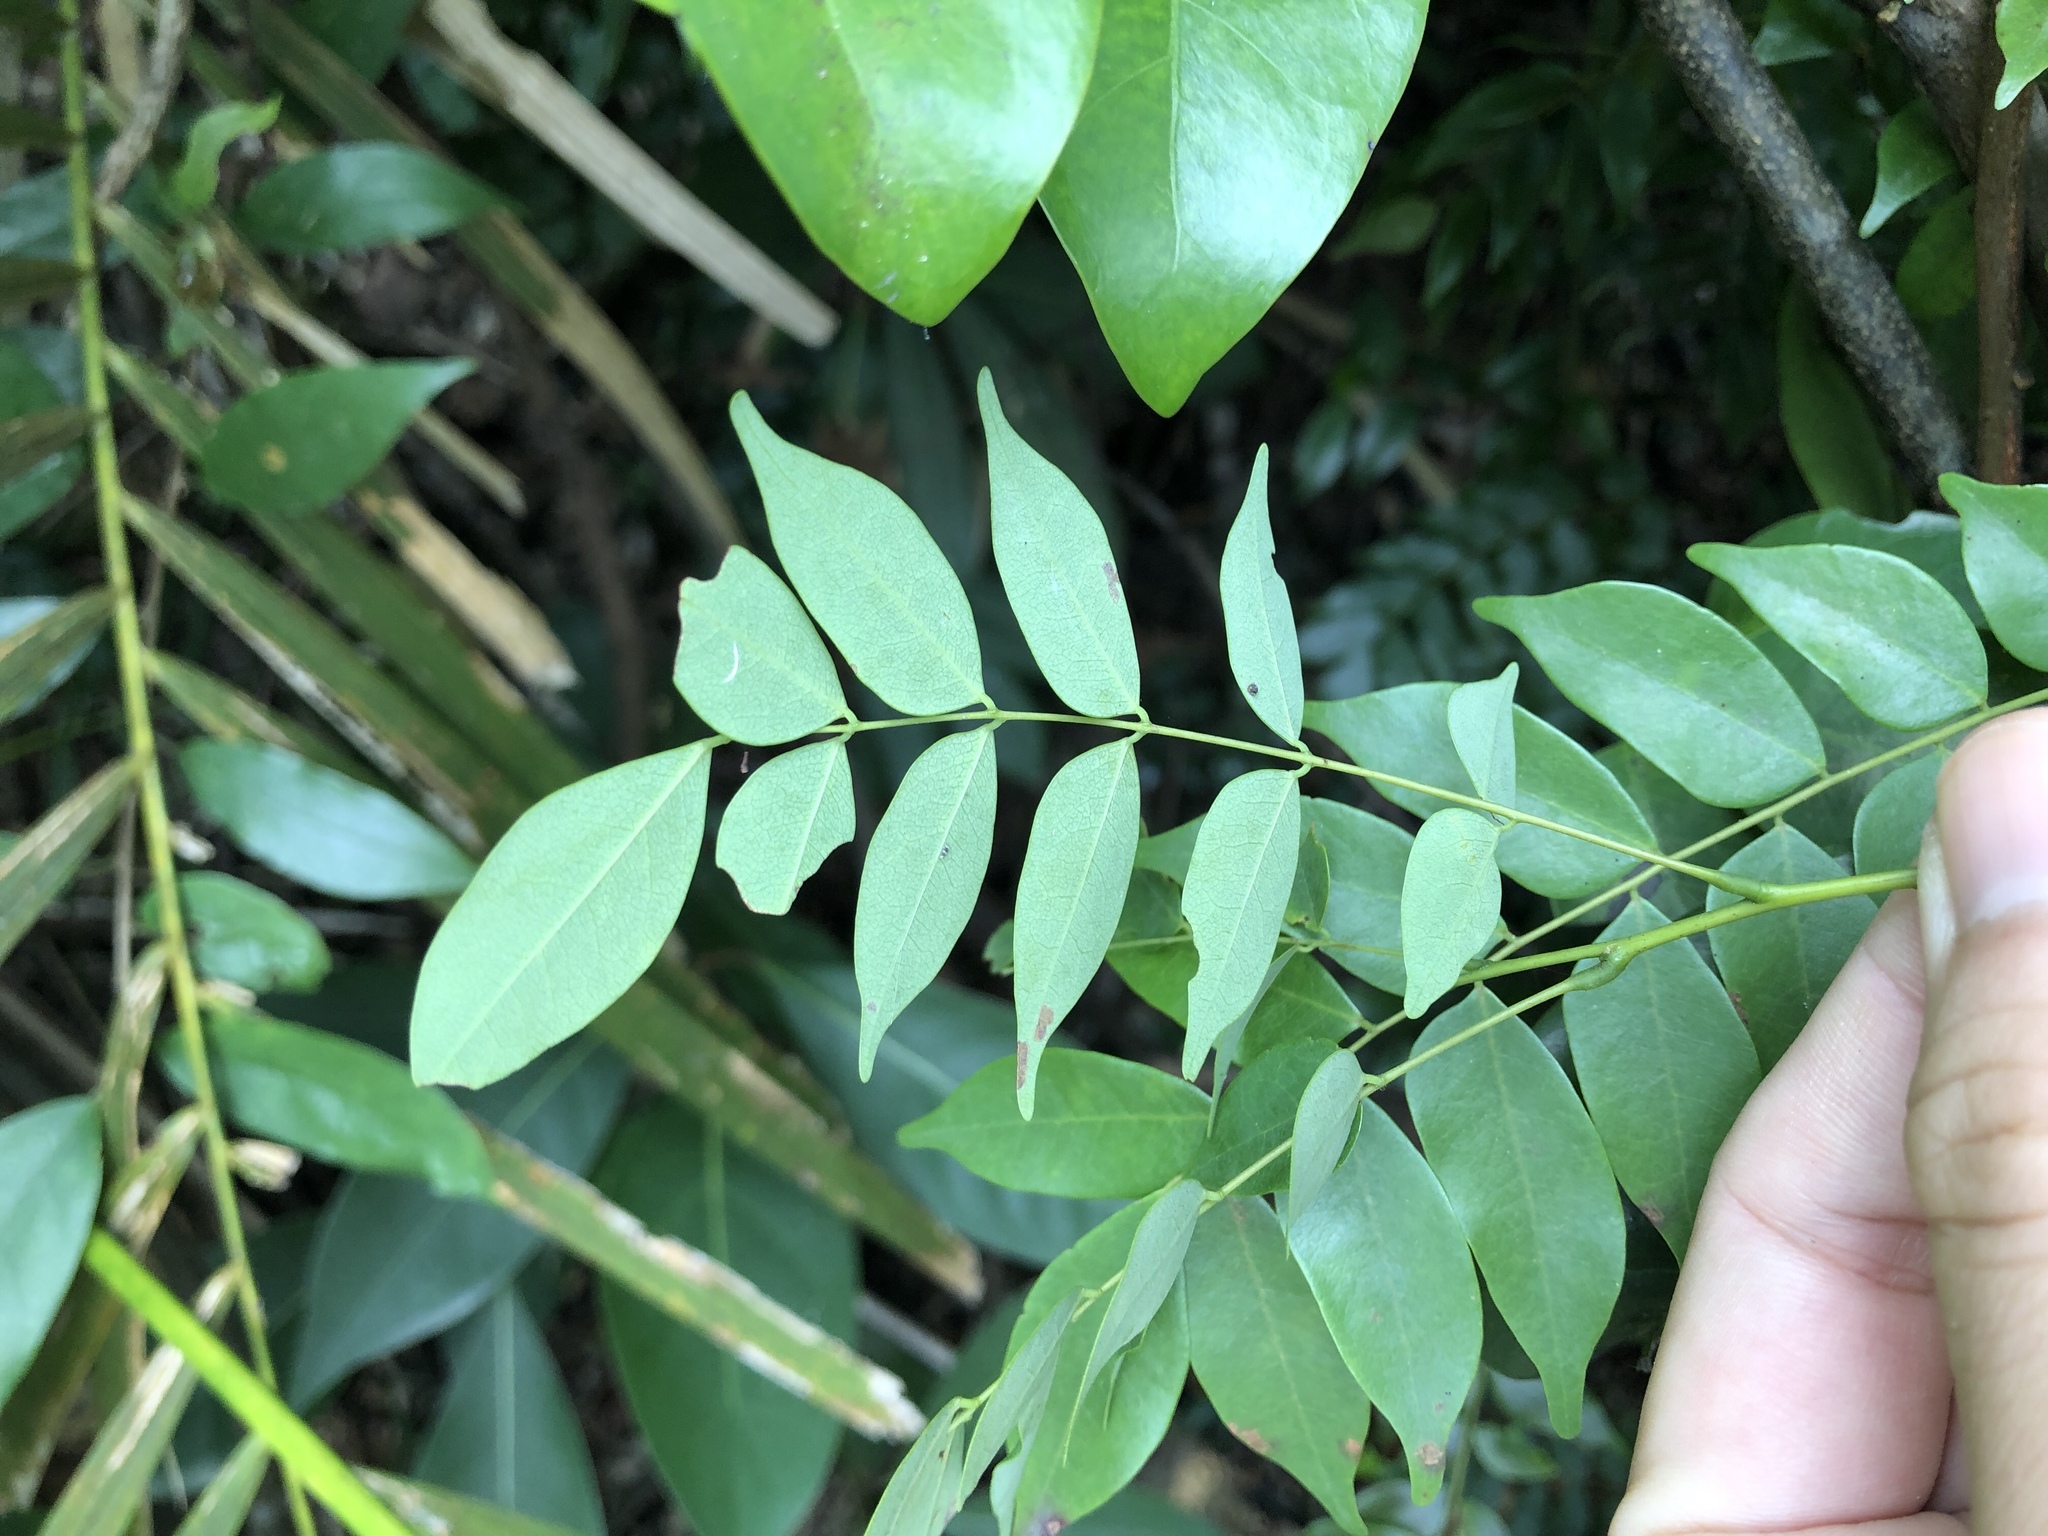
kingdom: Plantae
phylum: Tracheophyta
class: Magnoliopsida
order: Oxalidales
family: Connaraceae
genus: Rourea
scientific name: Rourea microphylla
